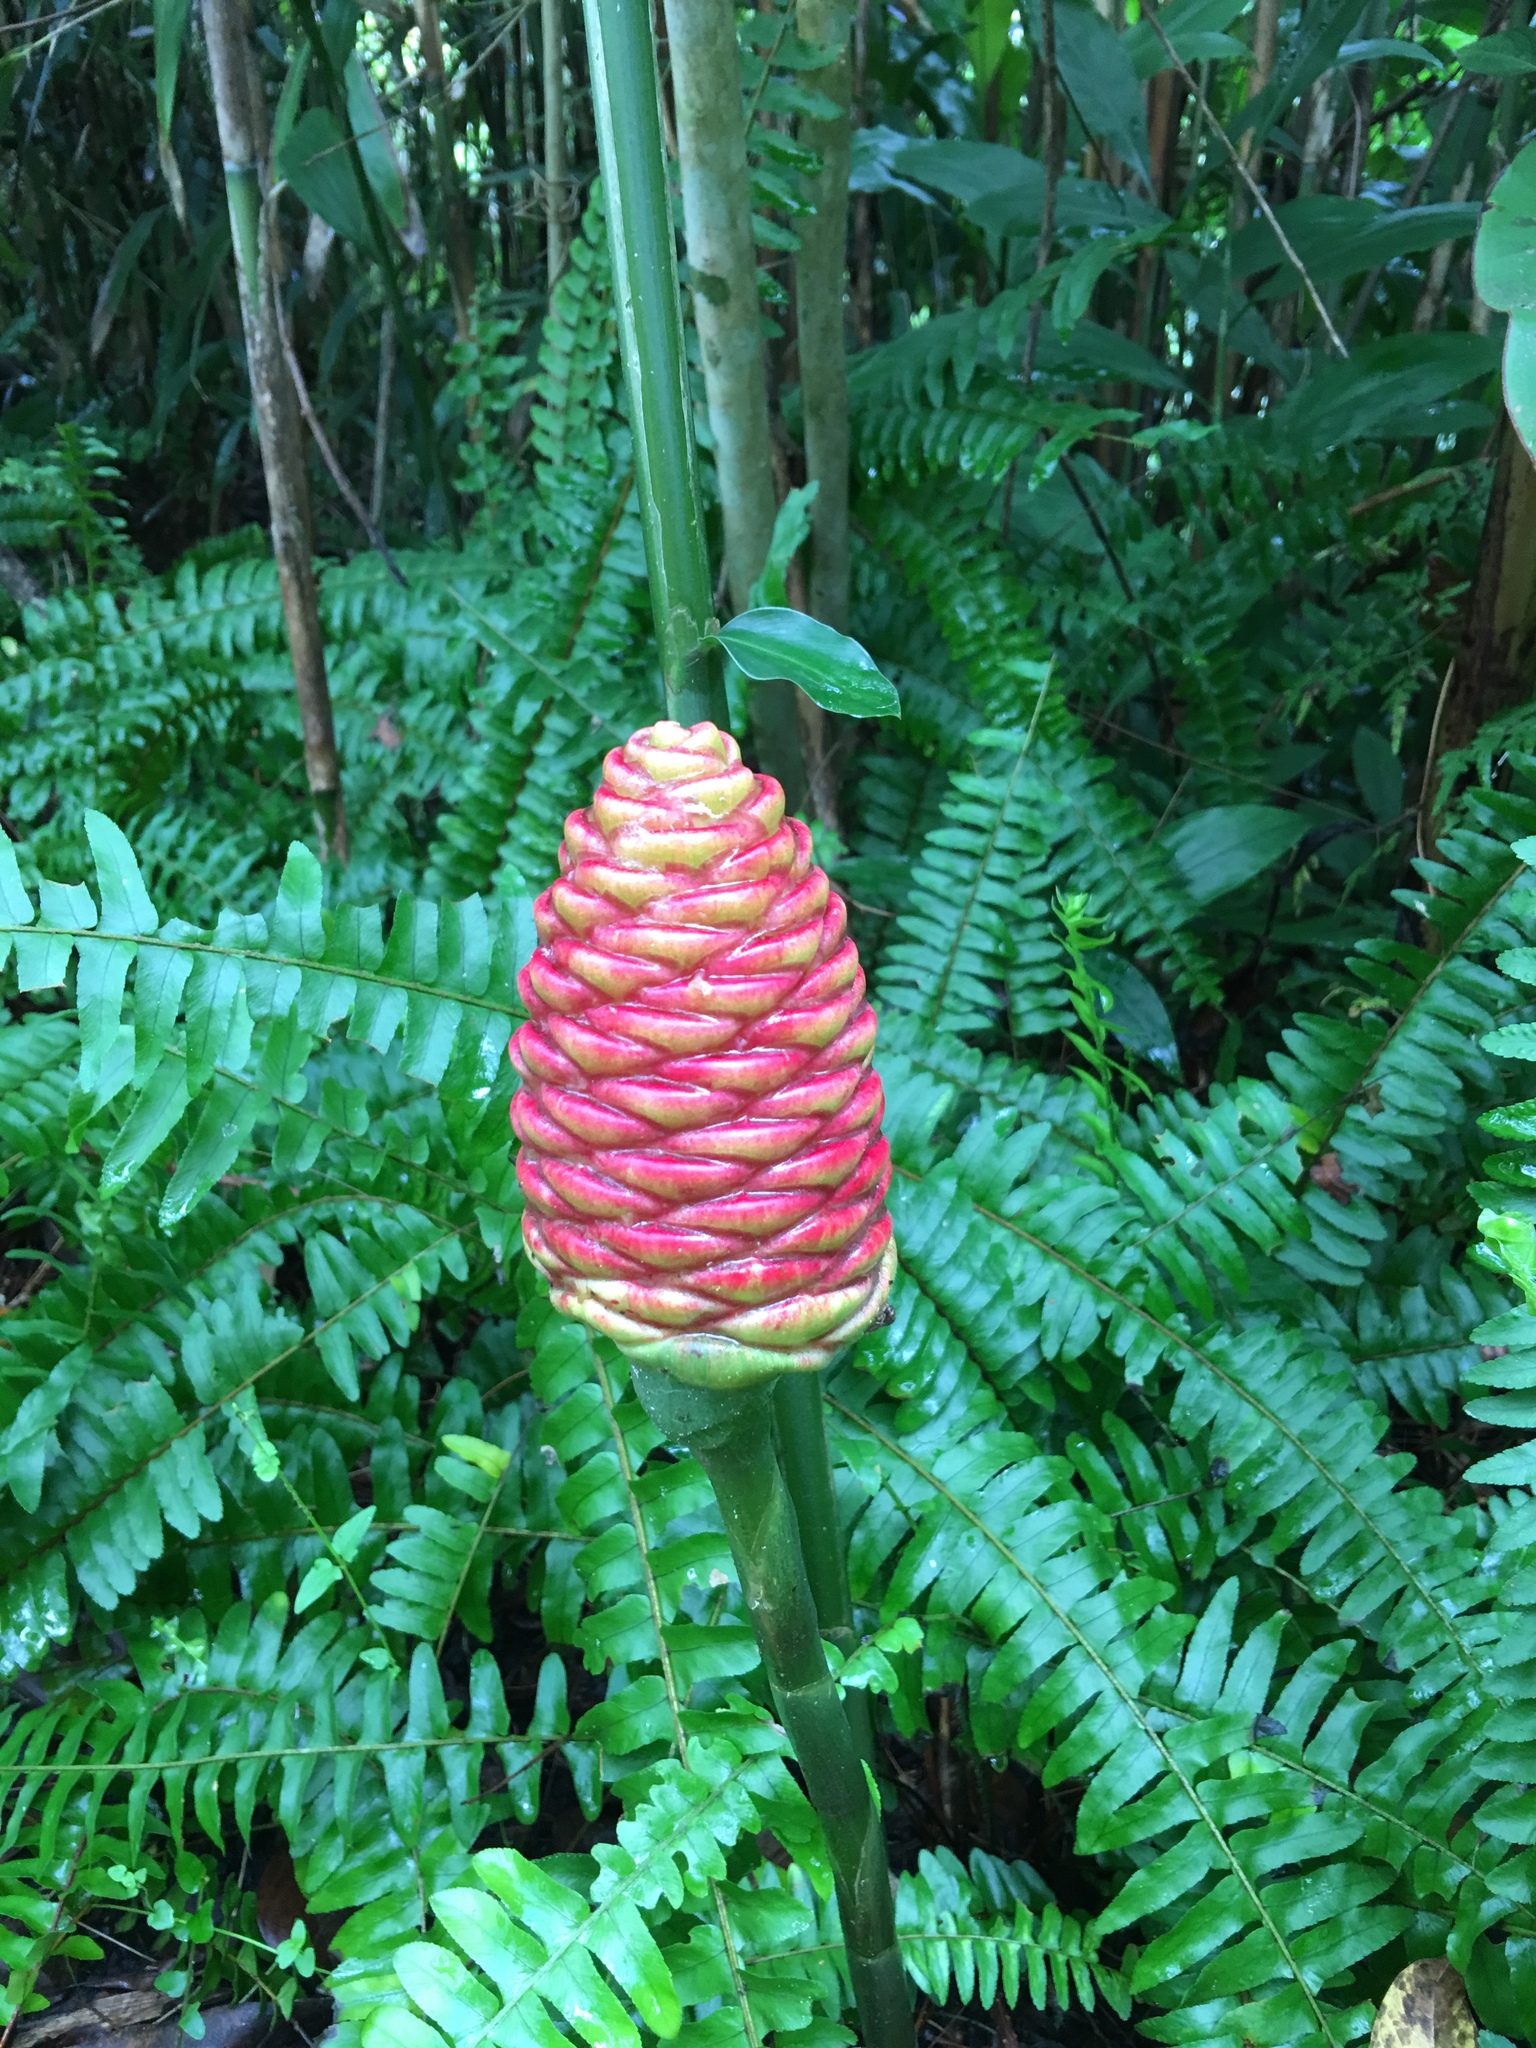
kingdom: Plantae
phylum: Tracheophyta
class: Liliopsida
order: Zingiberales
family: Zingiberaceae
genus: Zingiber
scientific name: Zingiber zerumbet
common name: Bitter ginger
